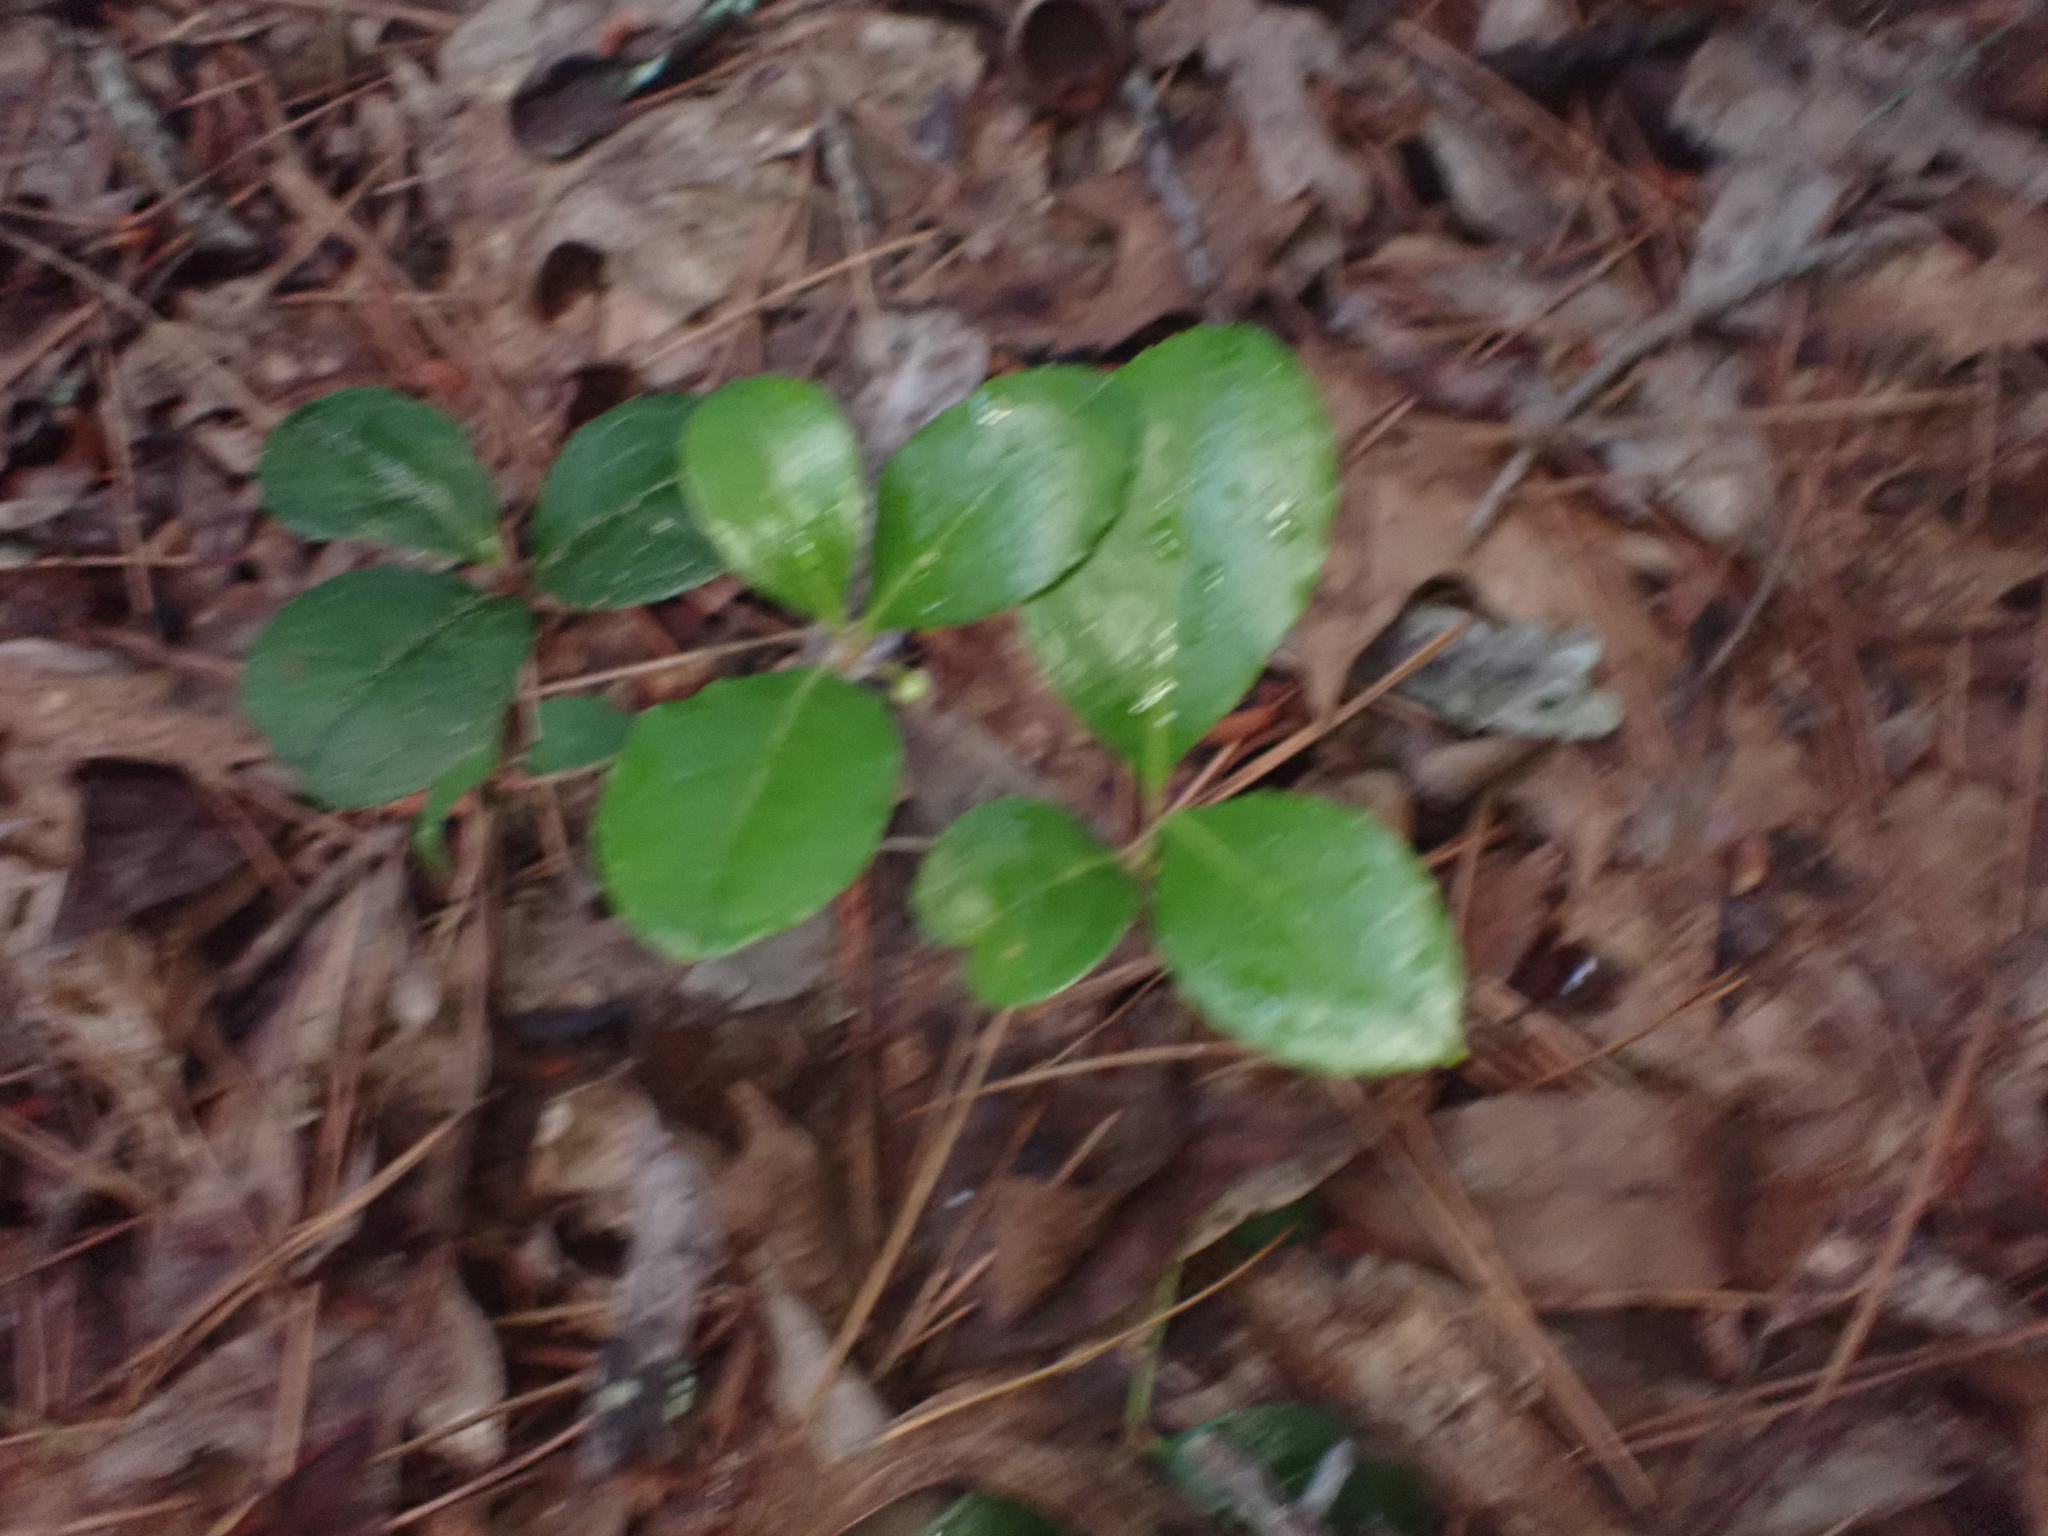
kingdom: Plantae
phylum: Tracheophyta
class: Magnoliopsida
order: Ericales
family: Ericaceae
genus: Gaultheria
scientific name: Gaultheria procumbens
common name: Checkerberry
